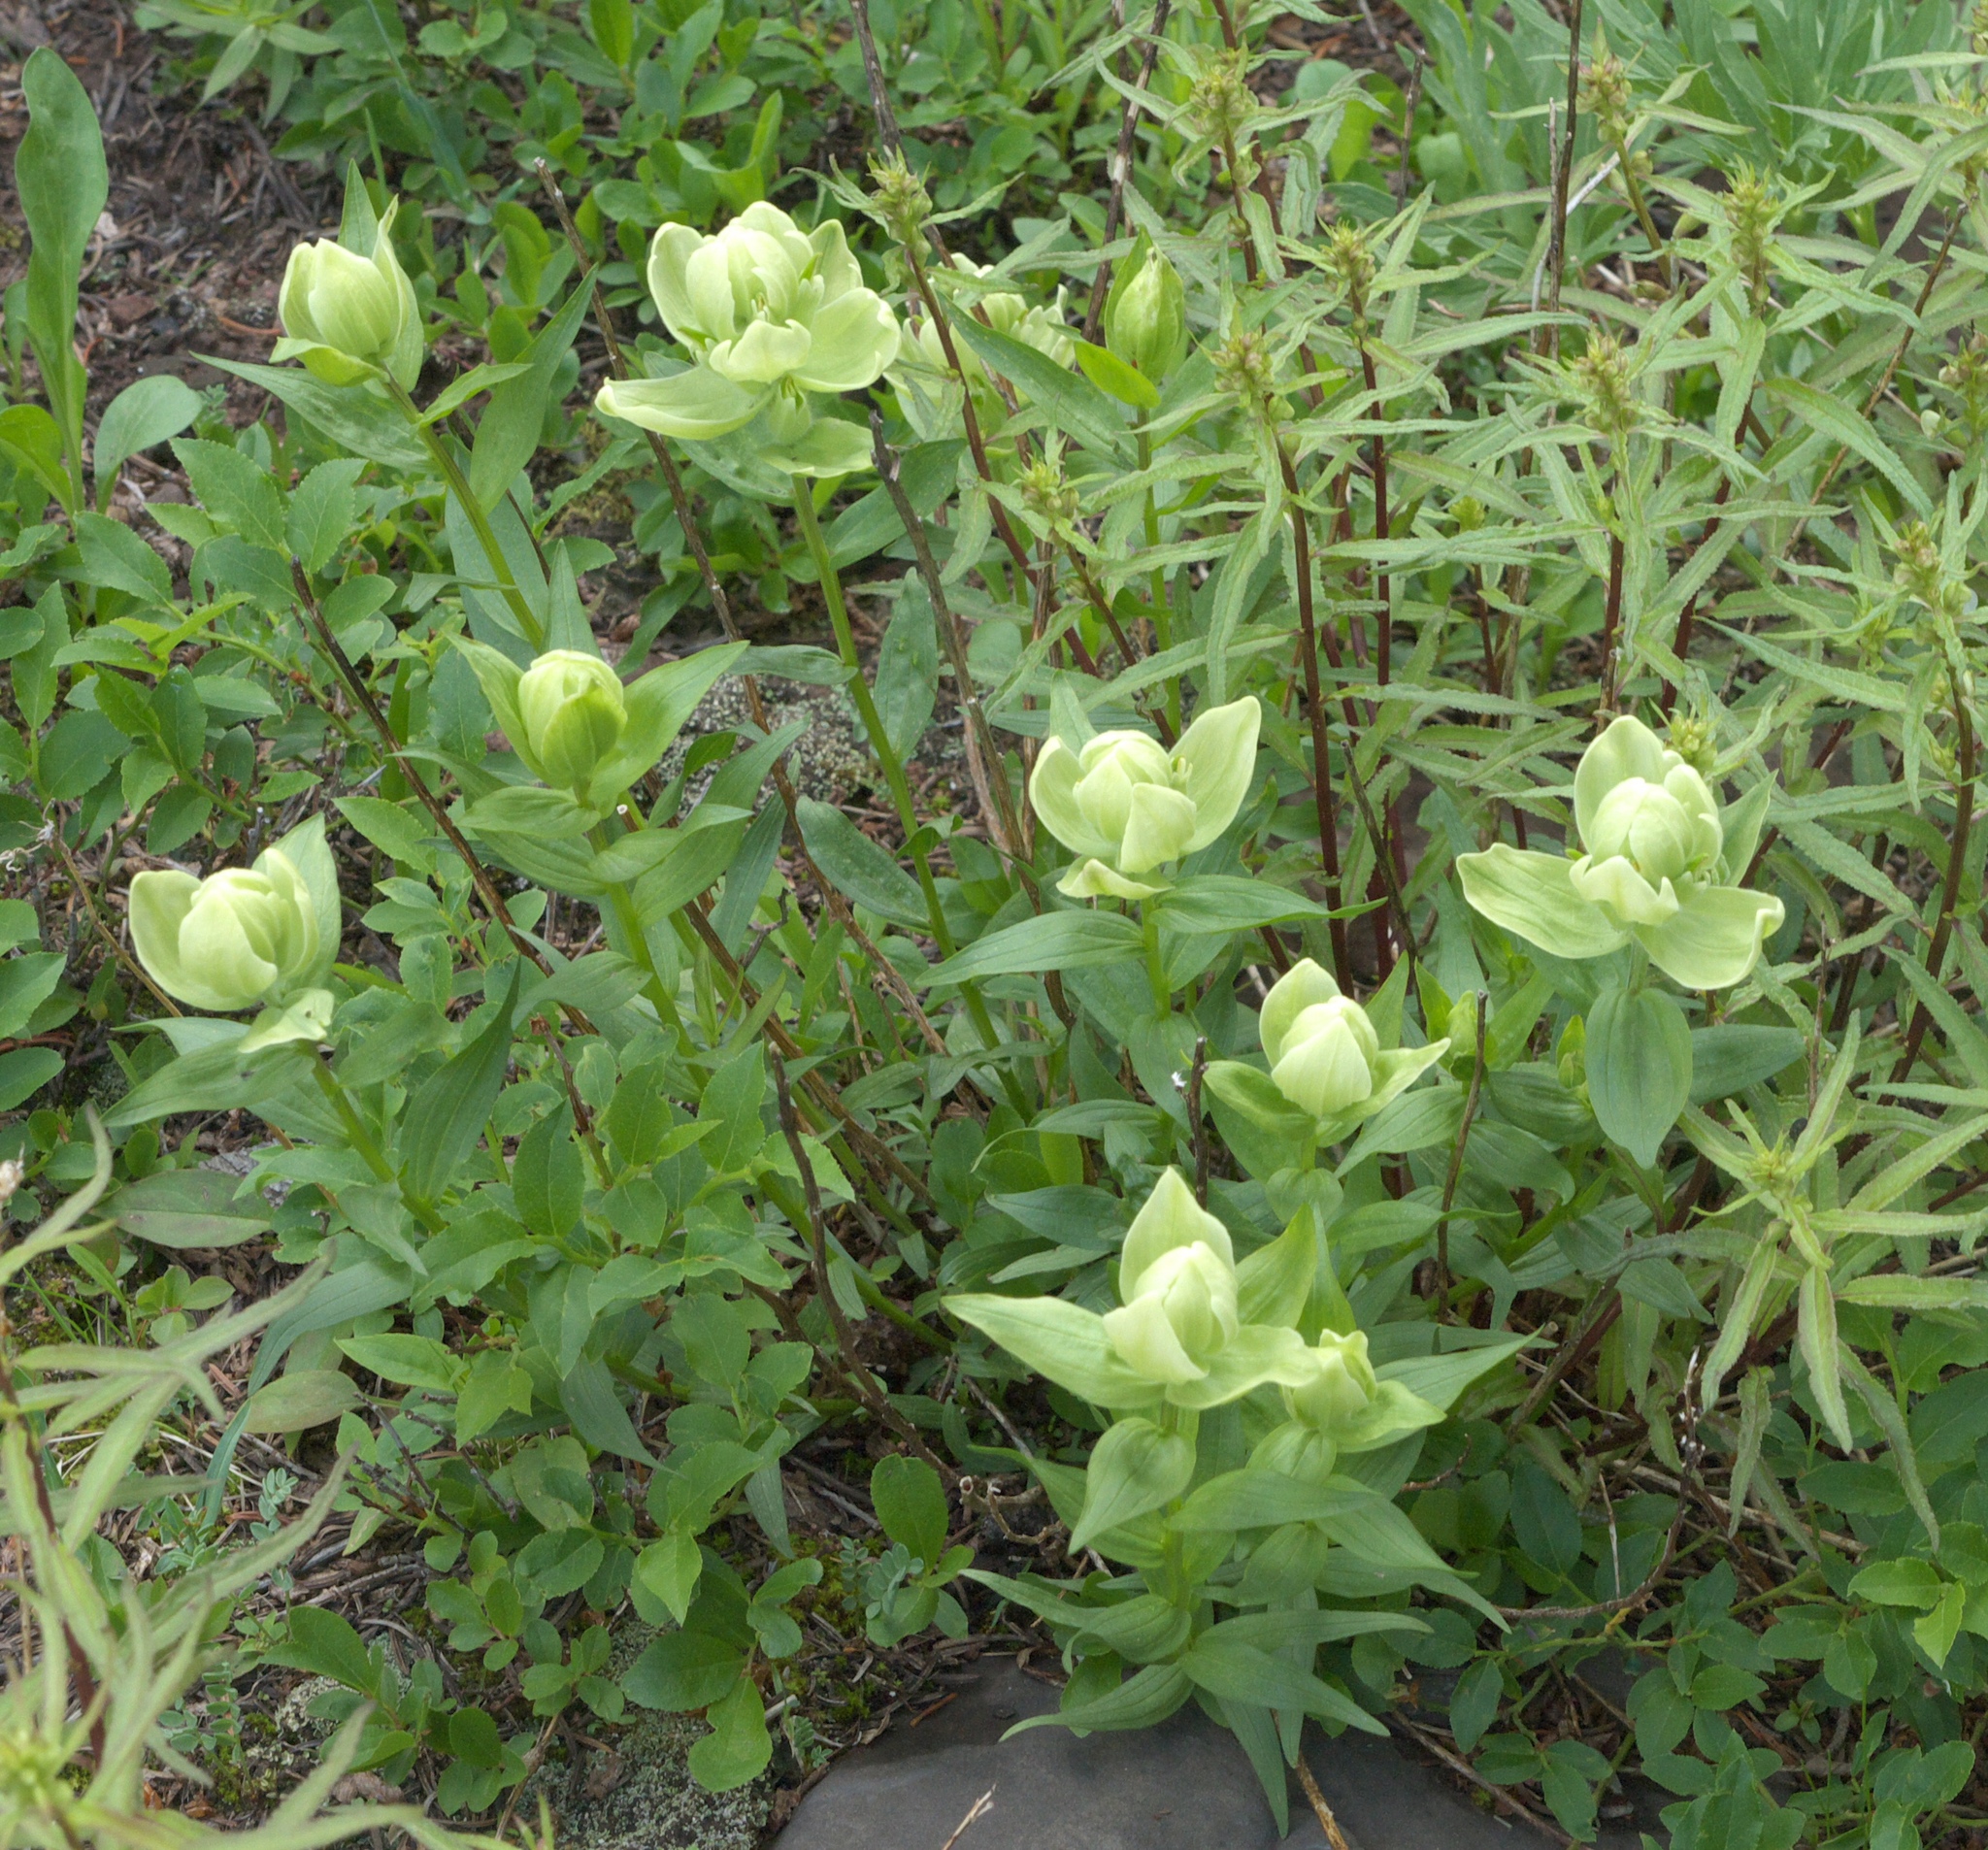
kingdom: Plantae
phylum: Tracheophyta
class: Magnoliopsida
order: Lamiales
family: Orobanchaceae
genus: Castilleja
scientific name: Castilleja occidentalis
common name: Western paintbrush
